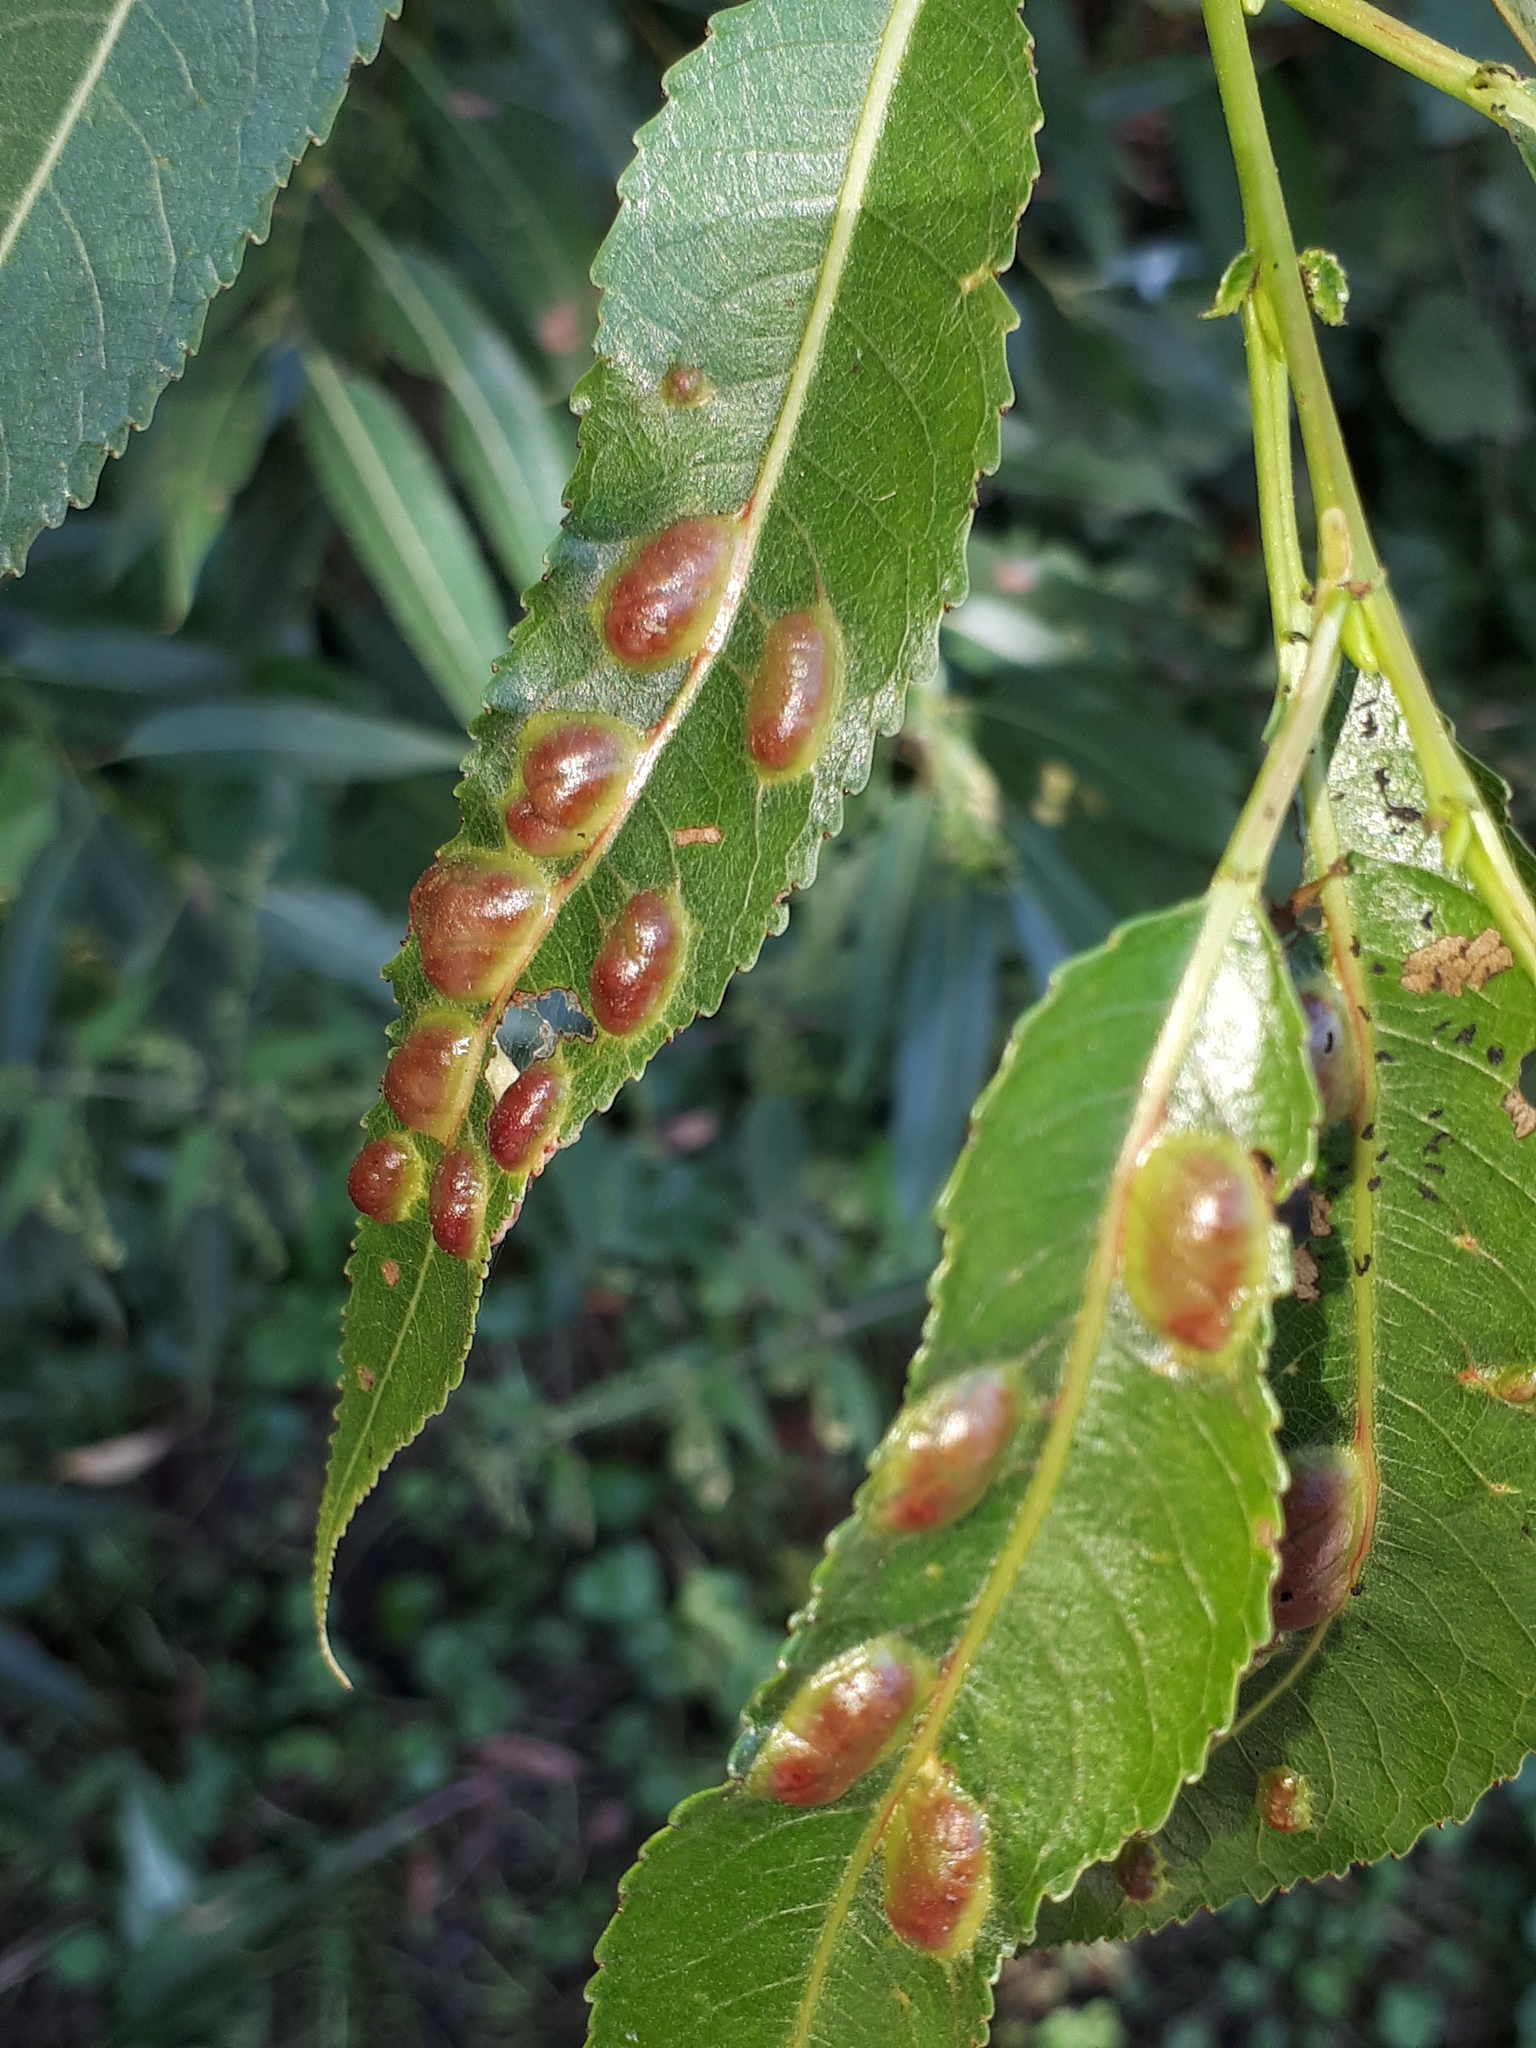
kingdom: Animalia
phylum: Arthropoda
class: Insecta
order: Hymenoptera
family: Tenthredinidae
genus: Pontania
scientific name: Pontania proxima
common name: Common sawfly
